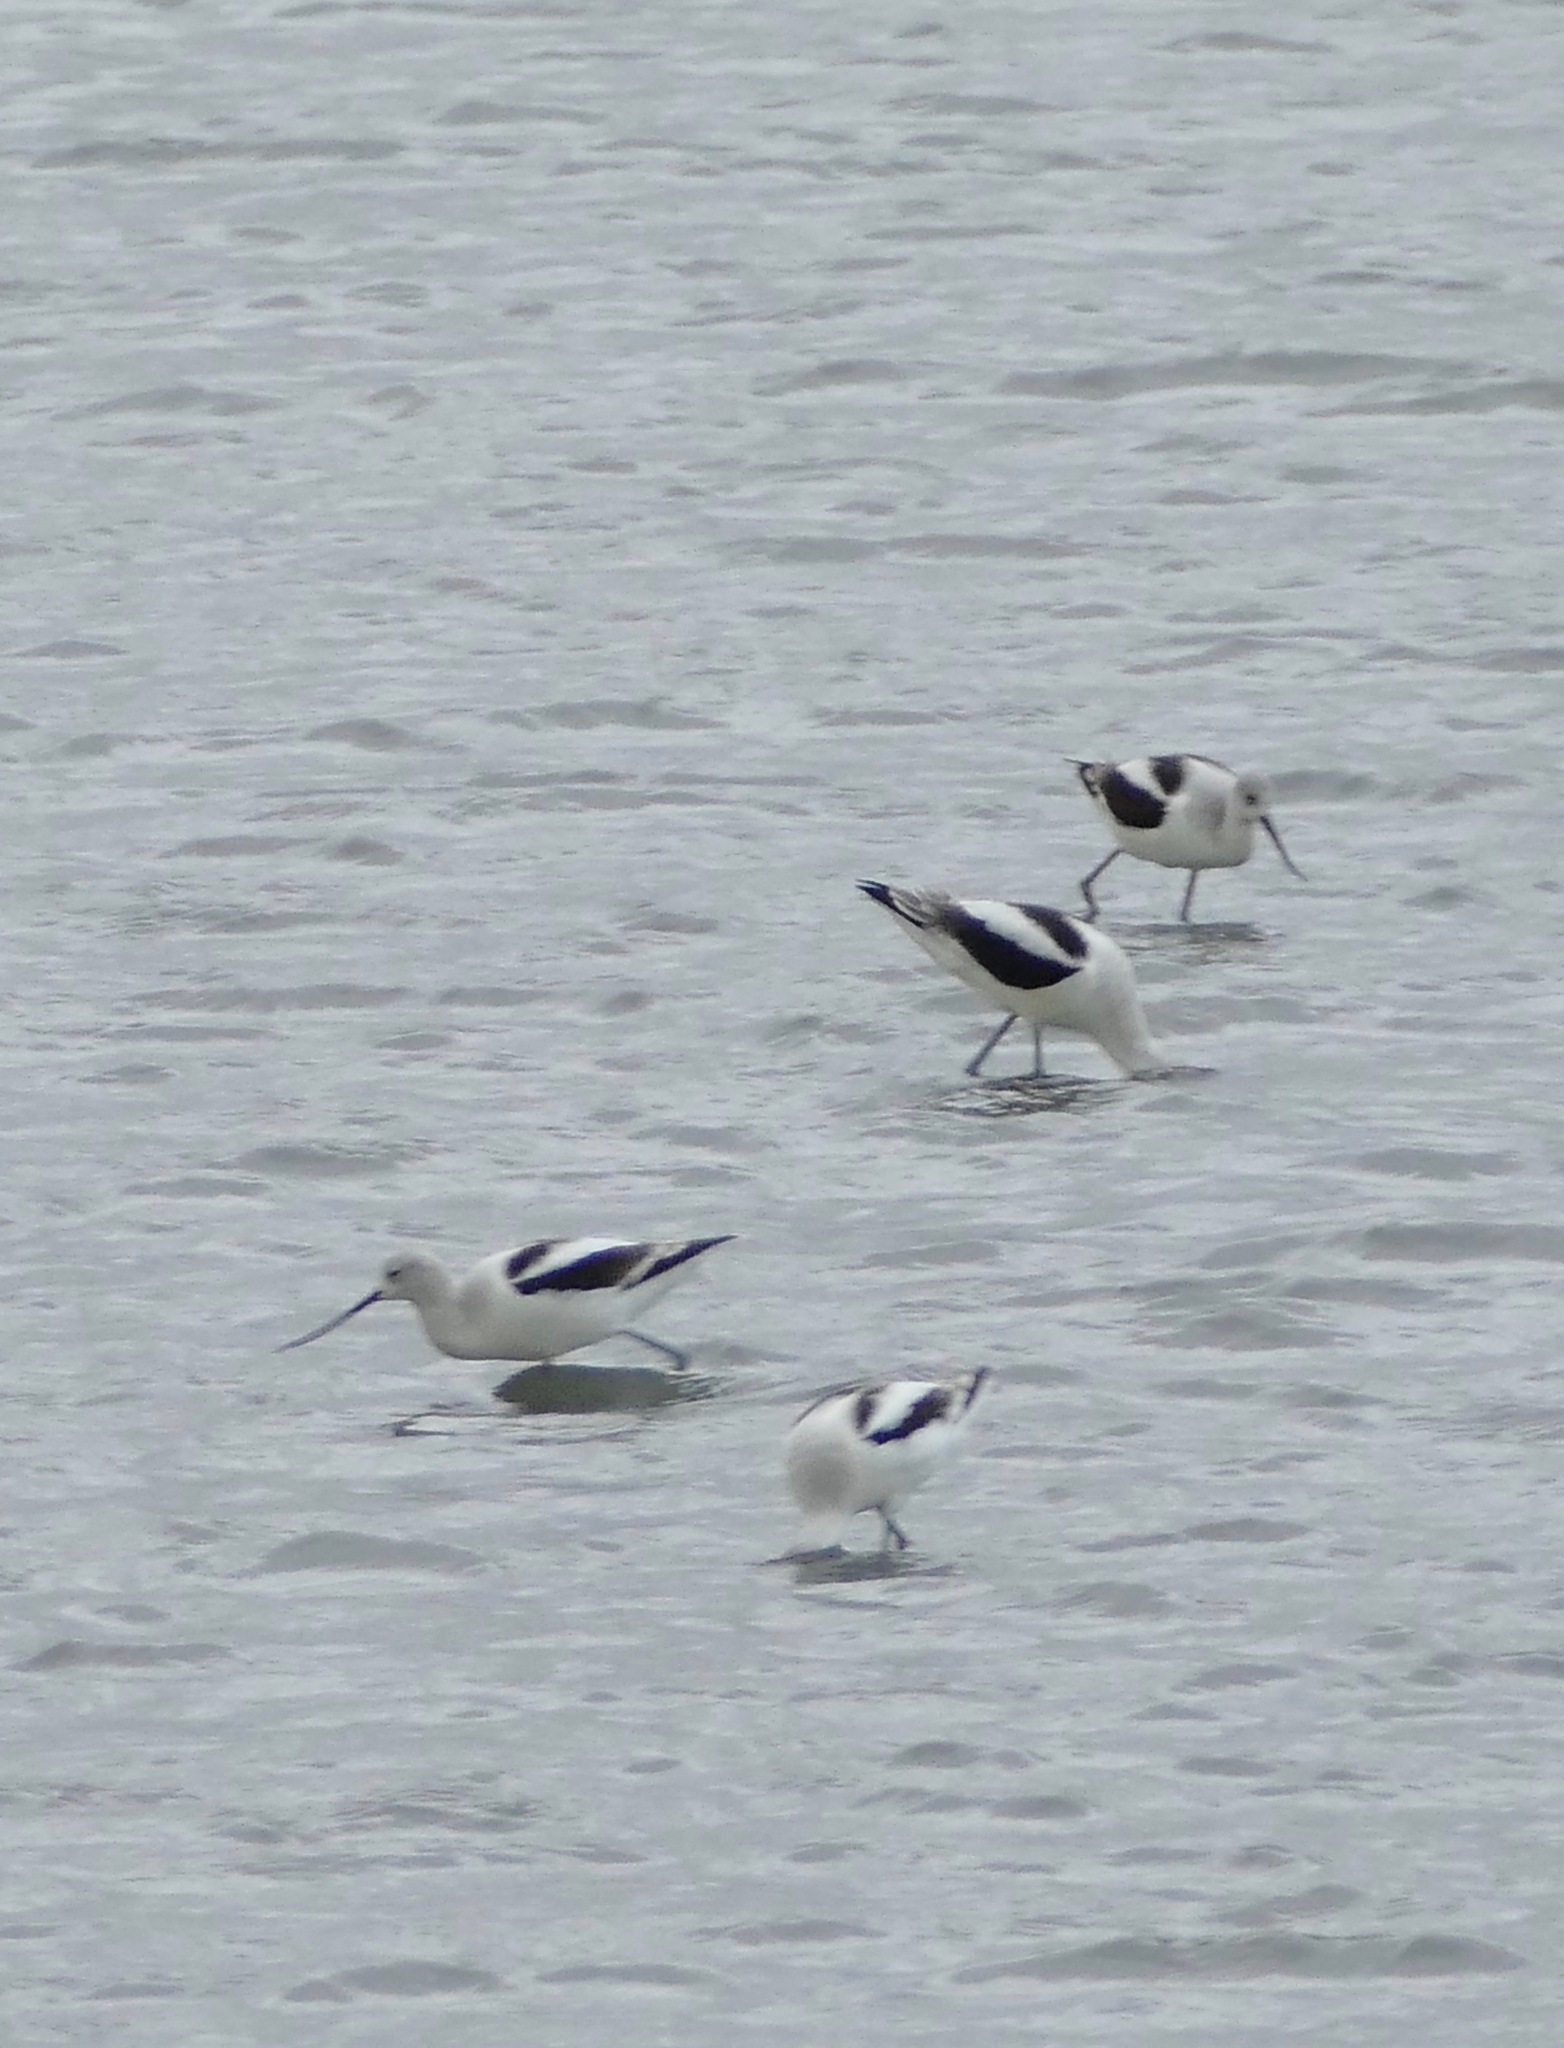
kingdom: Animalia
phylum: Chordata
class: Aves
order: Charadriiformes
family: Recurvirostridae
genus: Recurvirostra
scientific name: Recurvirostra americana
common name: American avocet
